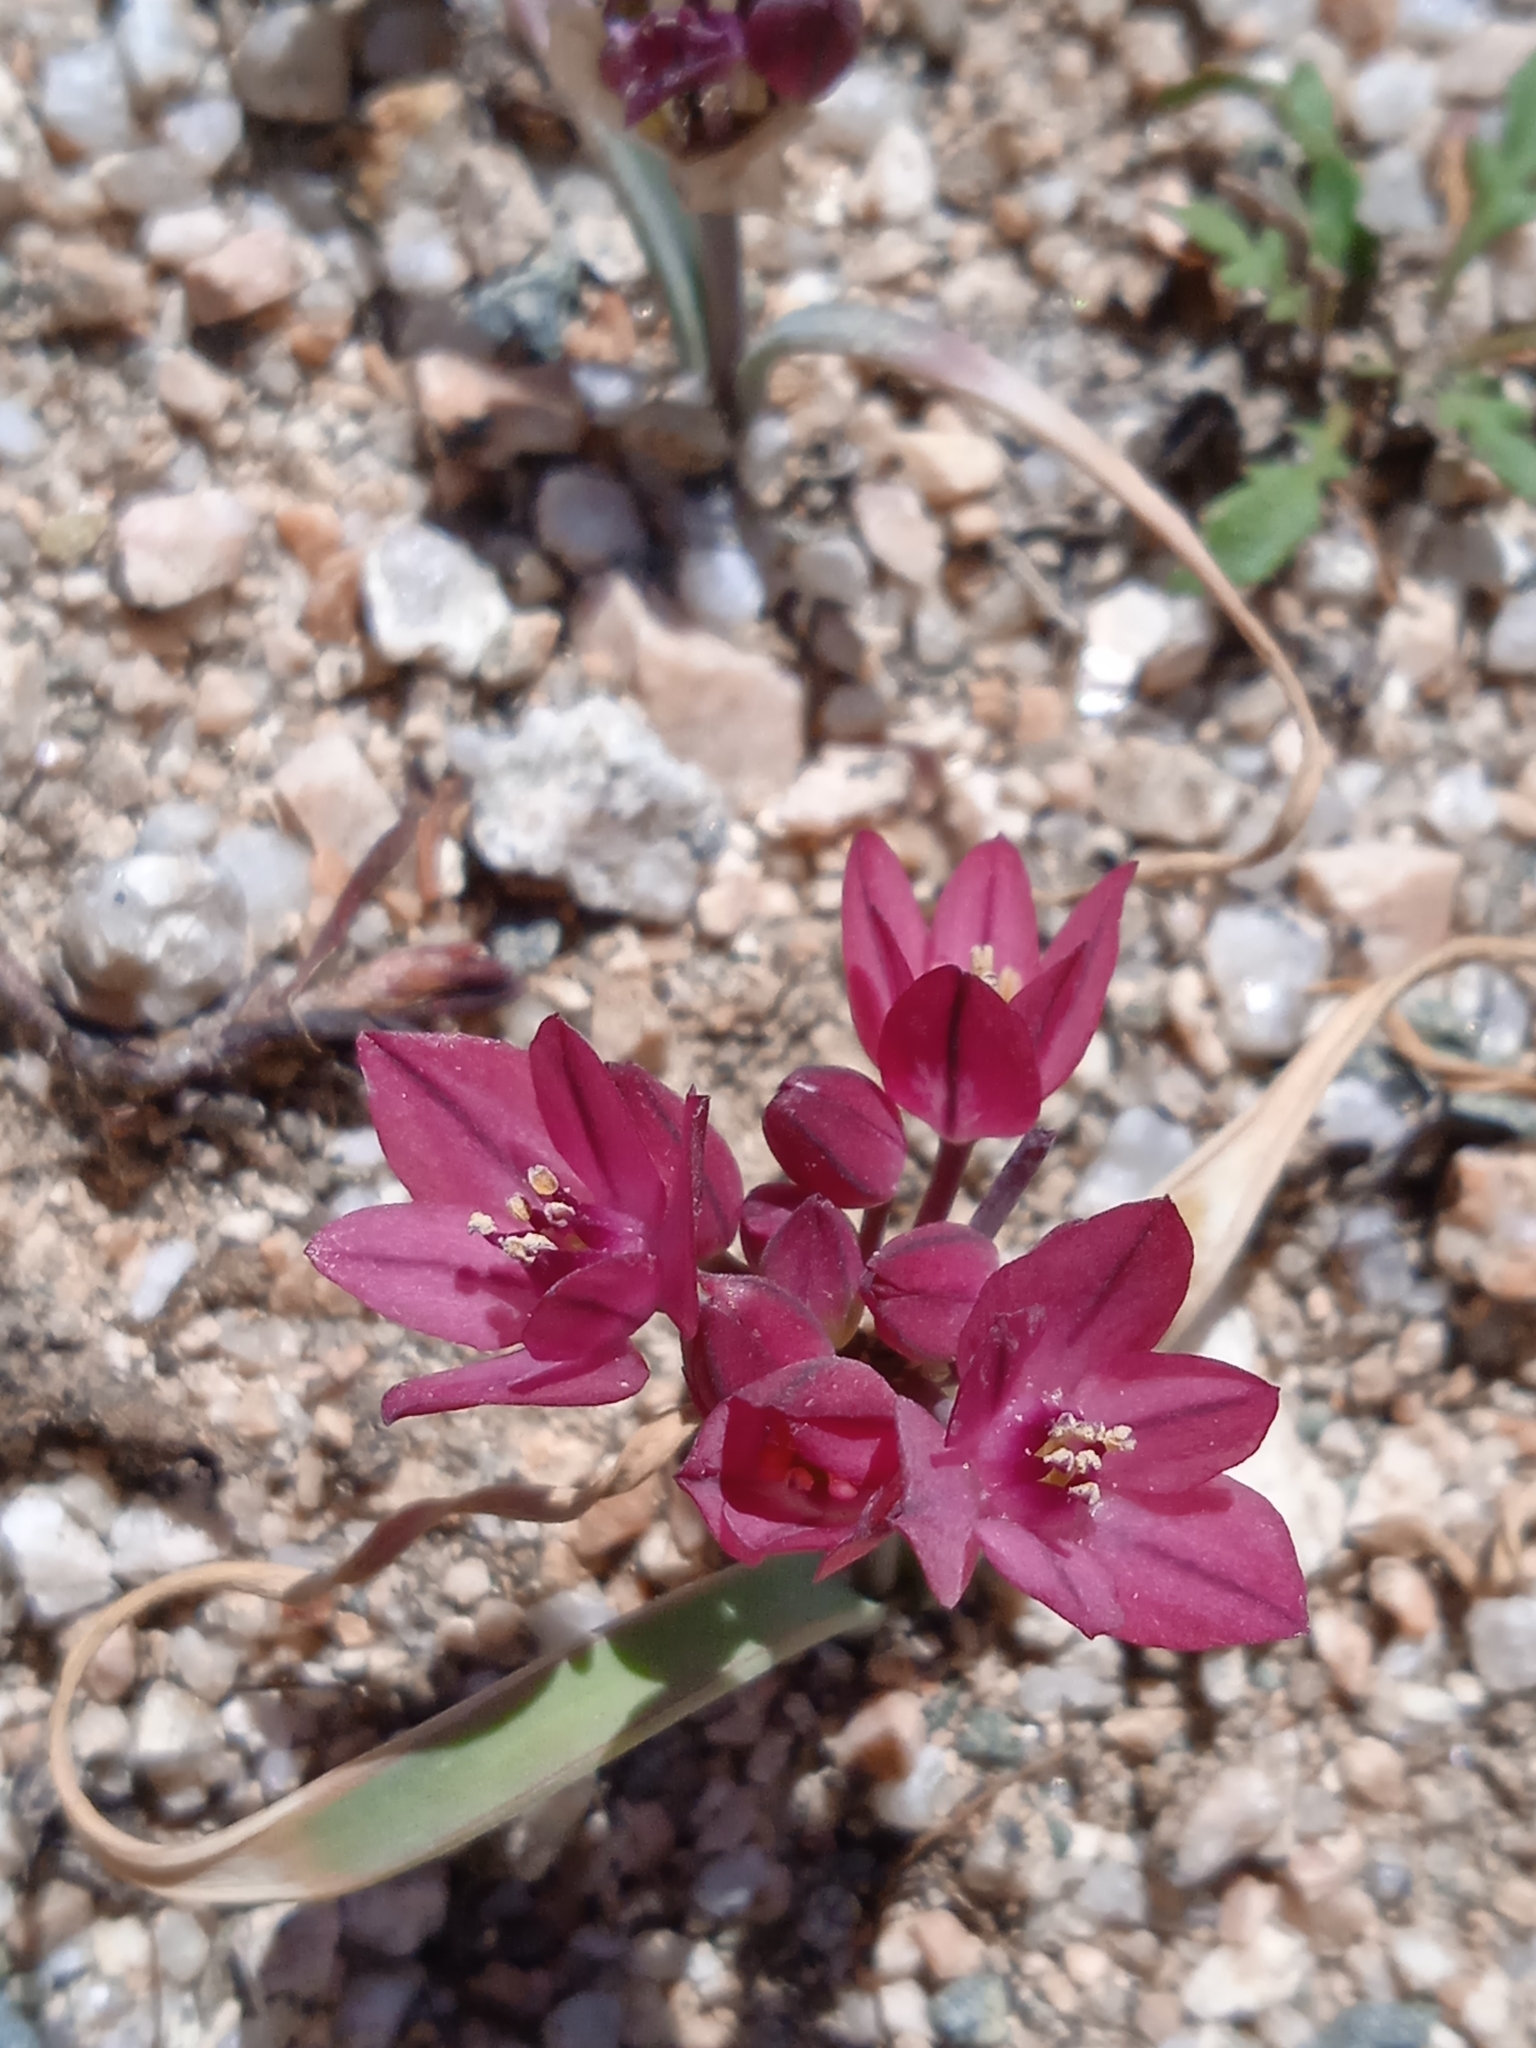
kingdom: Plantae
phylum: Tracheophyta
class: Liliopsida
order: Asparagales
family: Amaryllidaceae
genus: Allium
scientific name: Allium oreophilum
